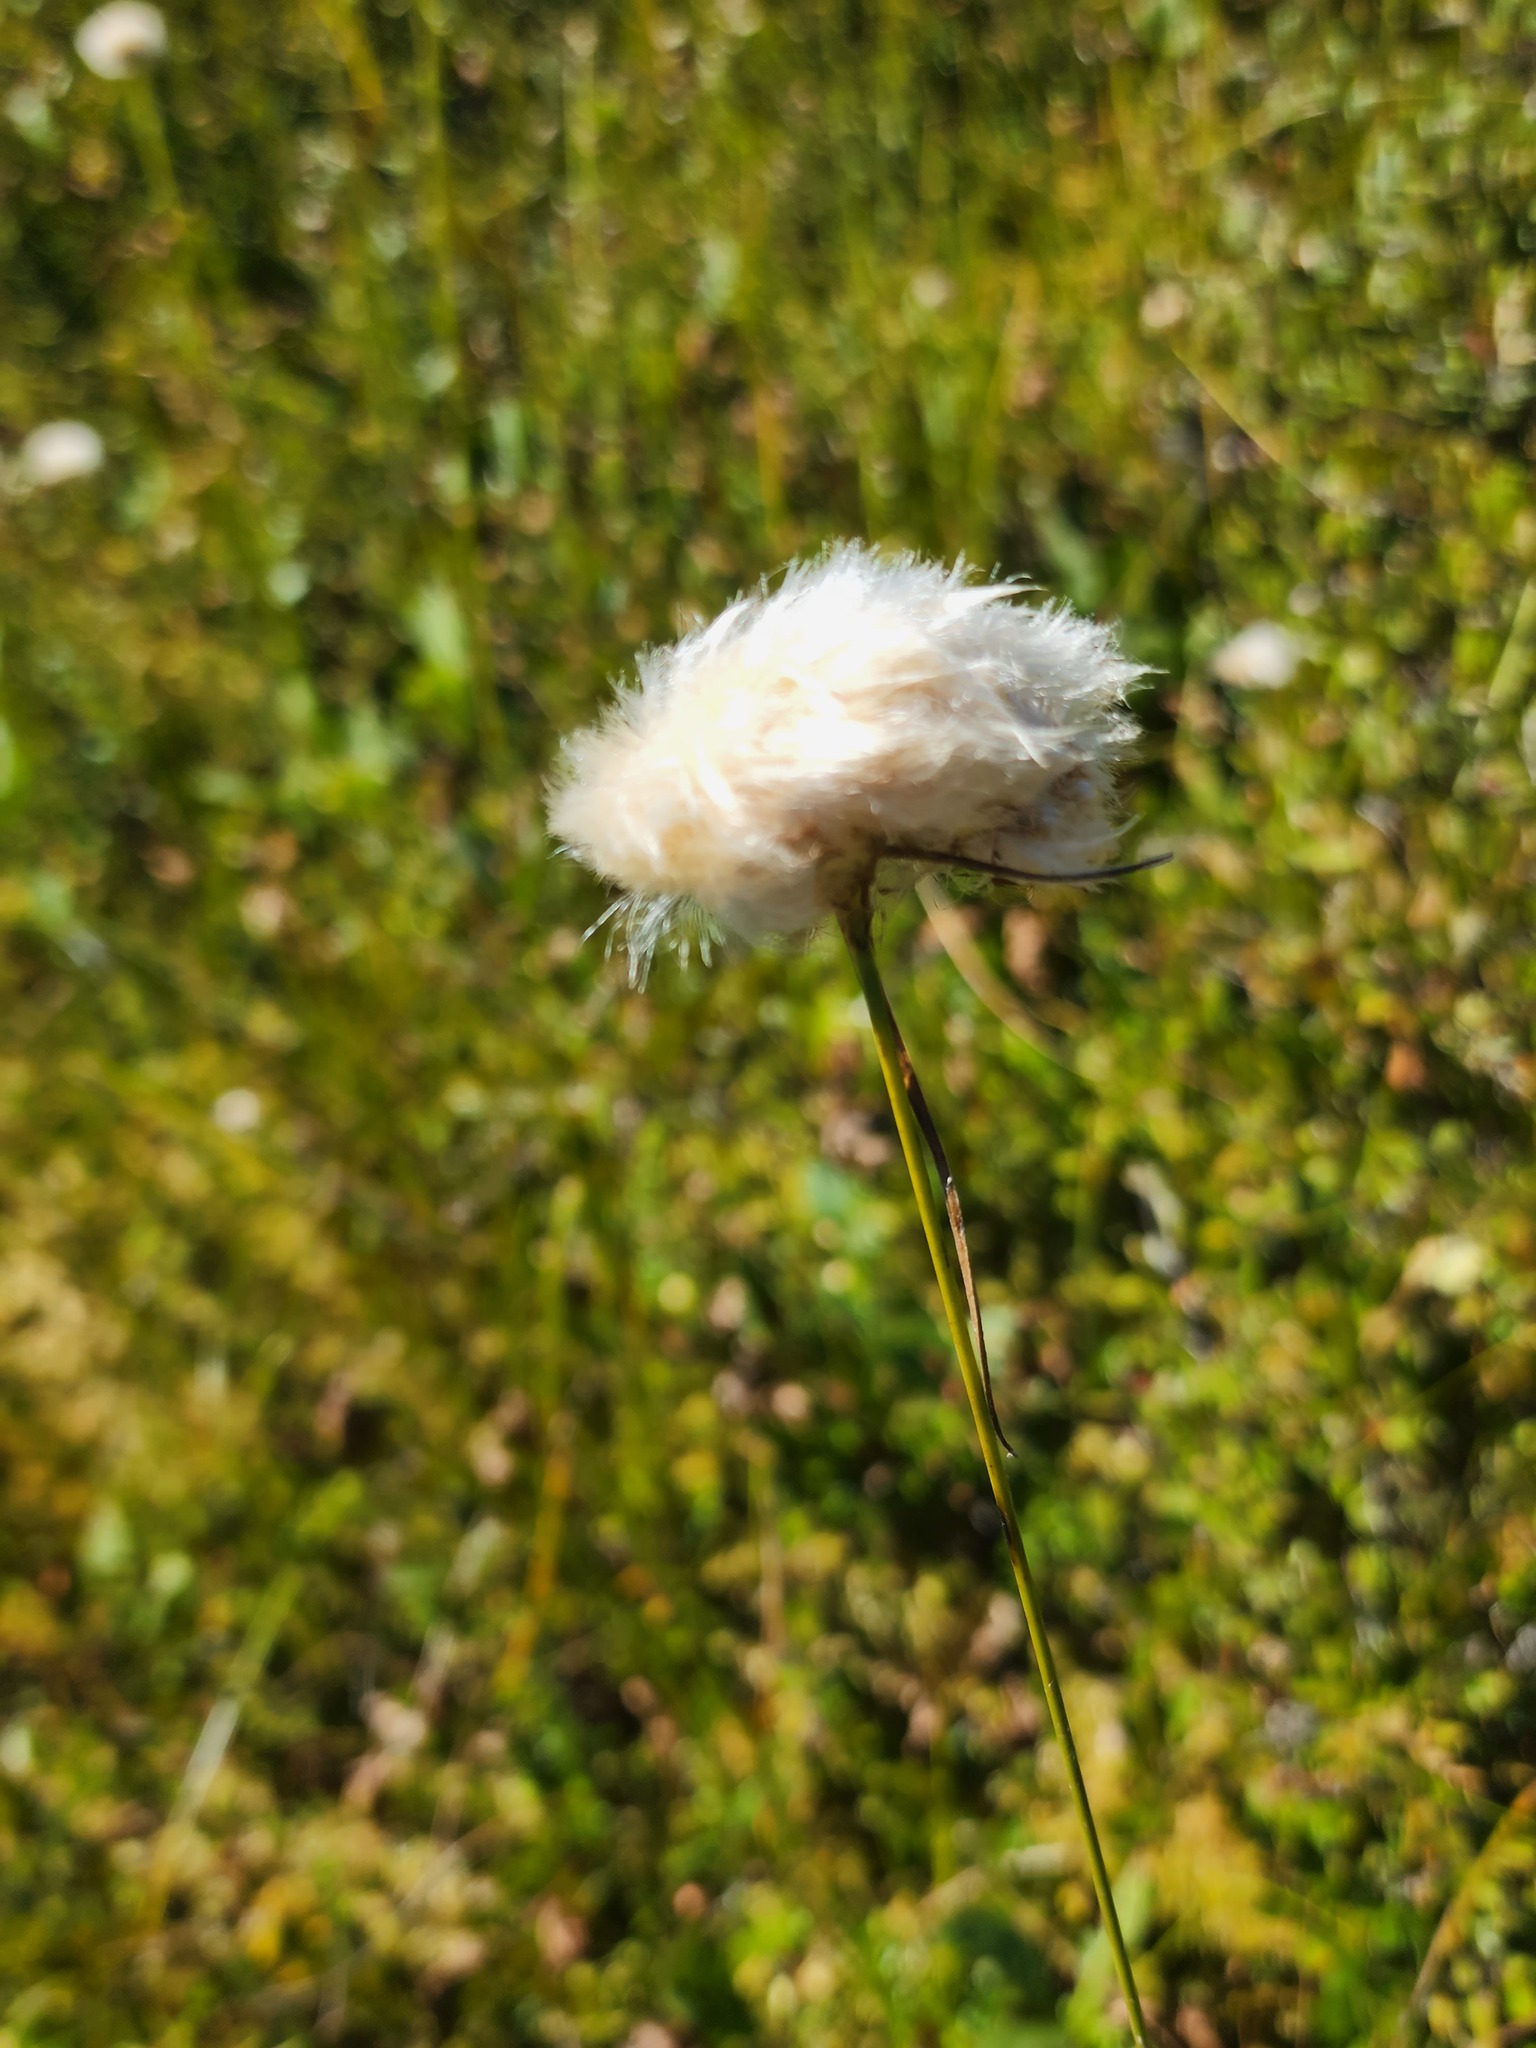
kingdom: Plantae
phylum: Tracheophyta
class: Liliopsida
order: Poales
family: Cyperaceae
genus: Eriophorum
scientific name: Eriophorum virginicum
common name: Tawny cottongrass
